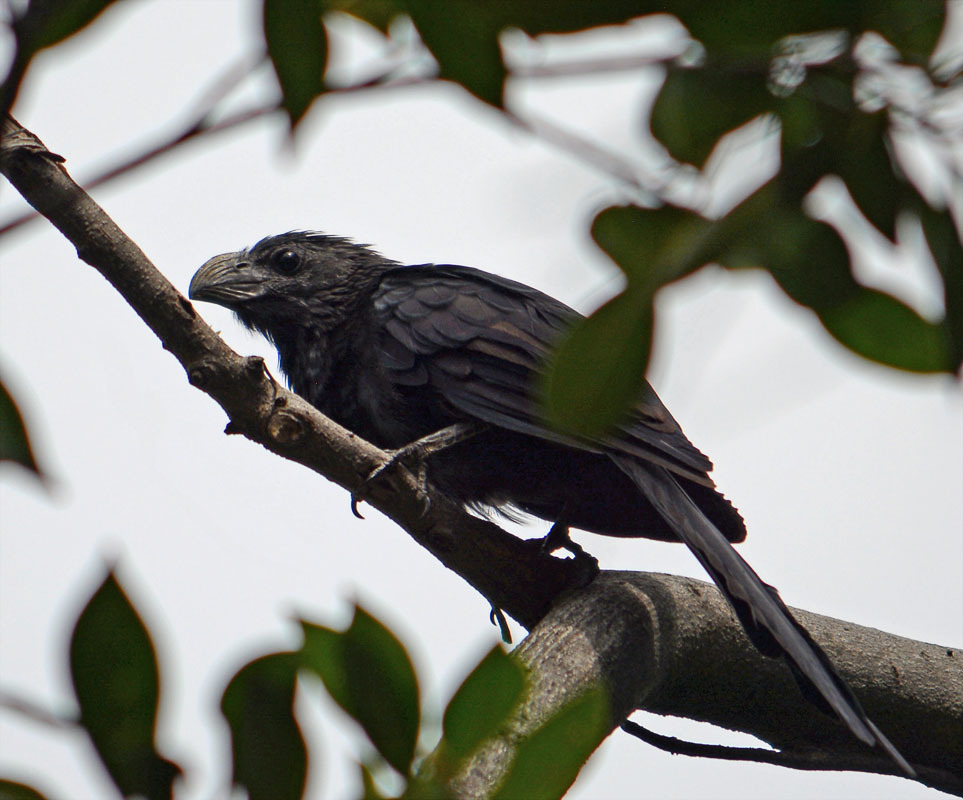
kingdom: Animalia
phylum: Chordata
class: Aves
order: Cuculiformes
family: Cuculidae
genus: Crotophaga
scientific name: Crotophaga sulcirostris
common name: Groove-billed ani
